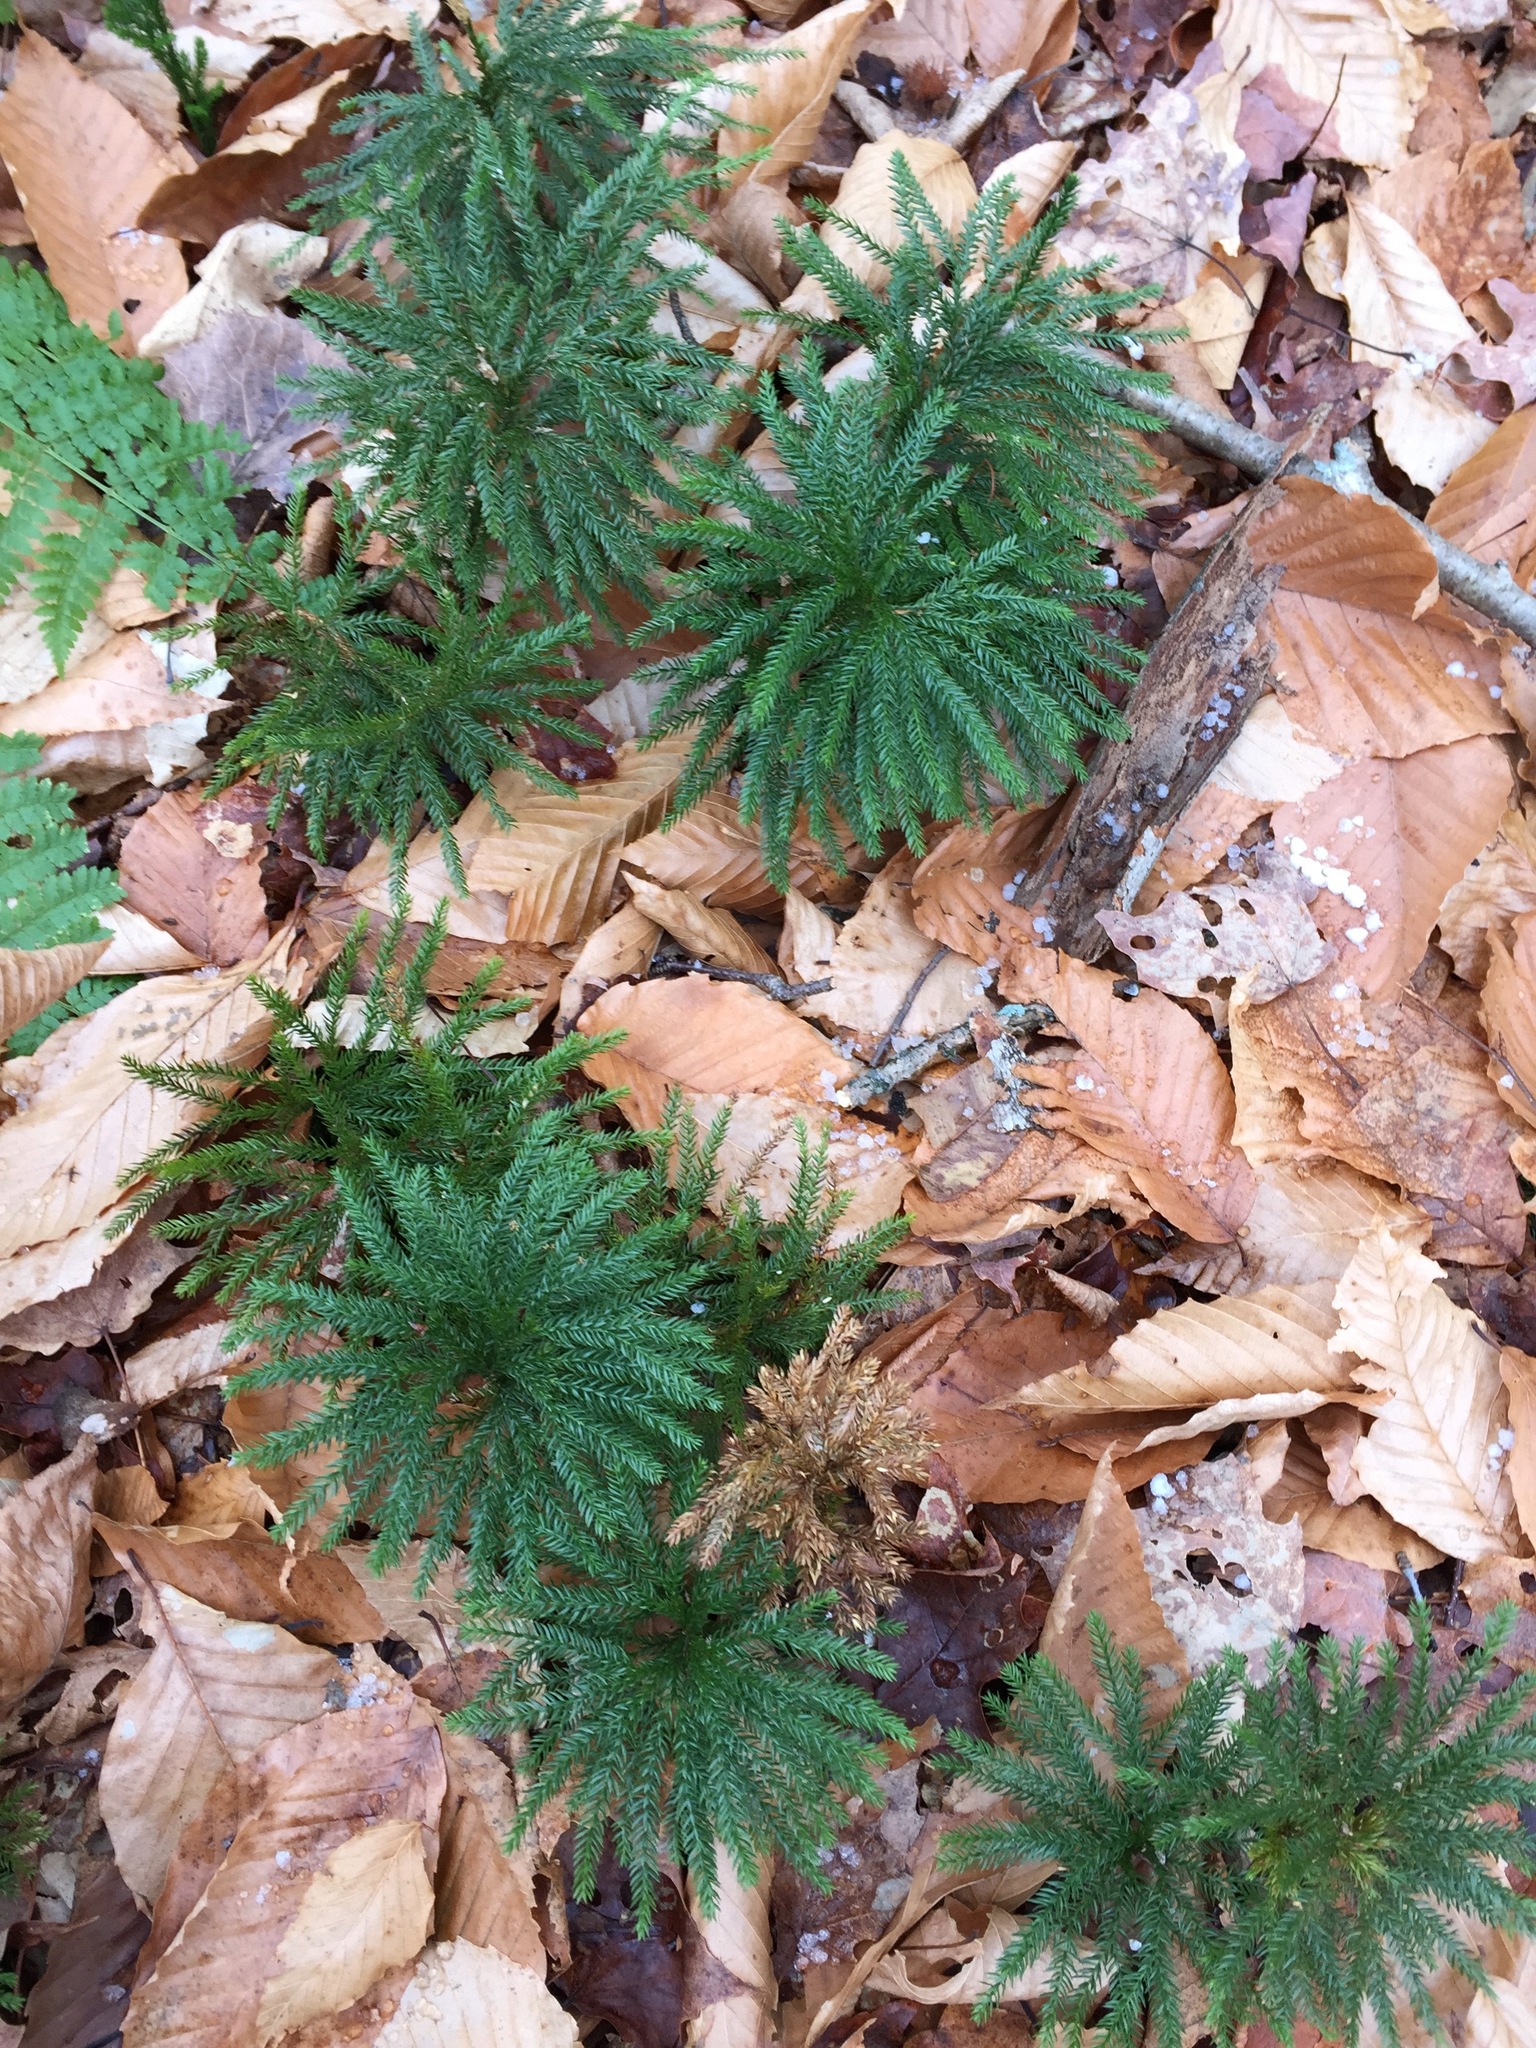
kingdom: Plantae
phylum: Tracheophyta
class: Lycopodiopsida
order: Lycopodiales
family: Lycopodiaceae
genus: Dendrolycopodium
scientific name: Dendrolycopodium obscurum
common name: Common ground-pine
